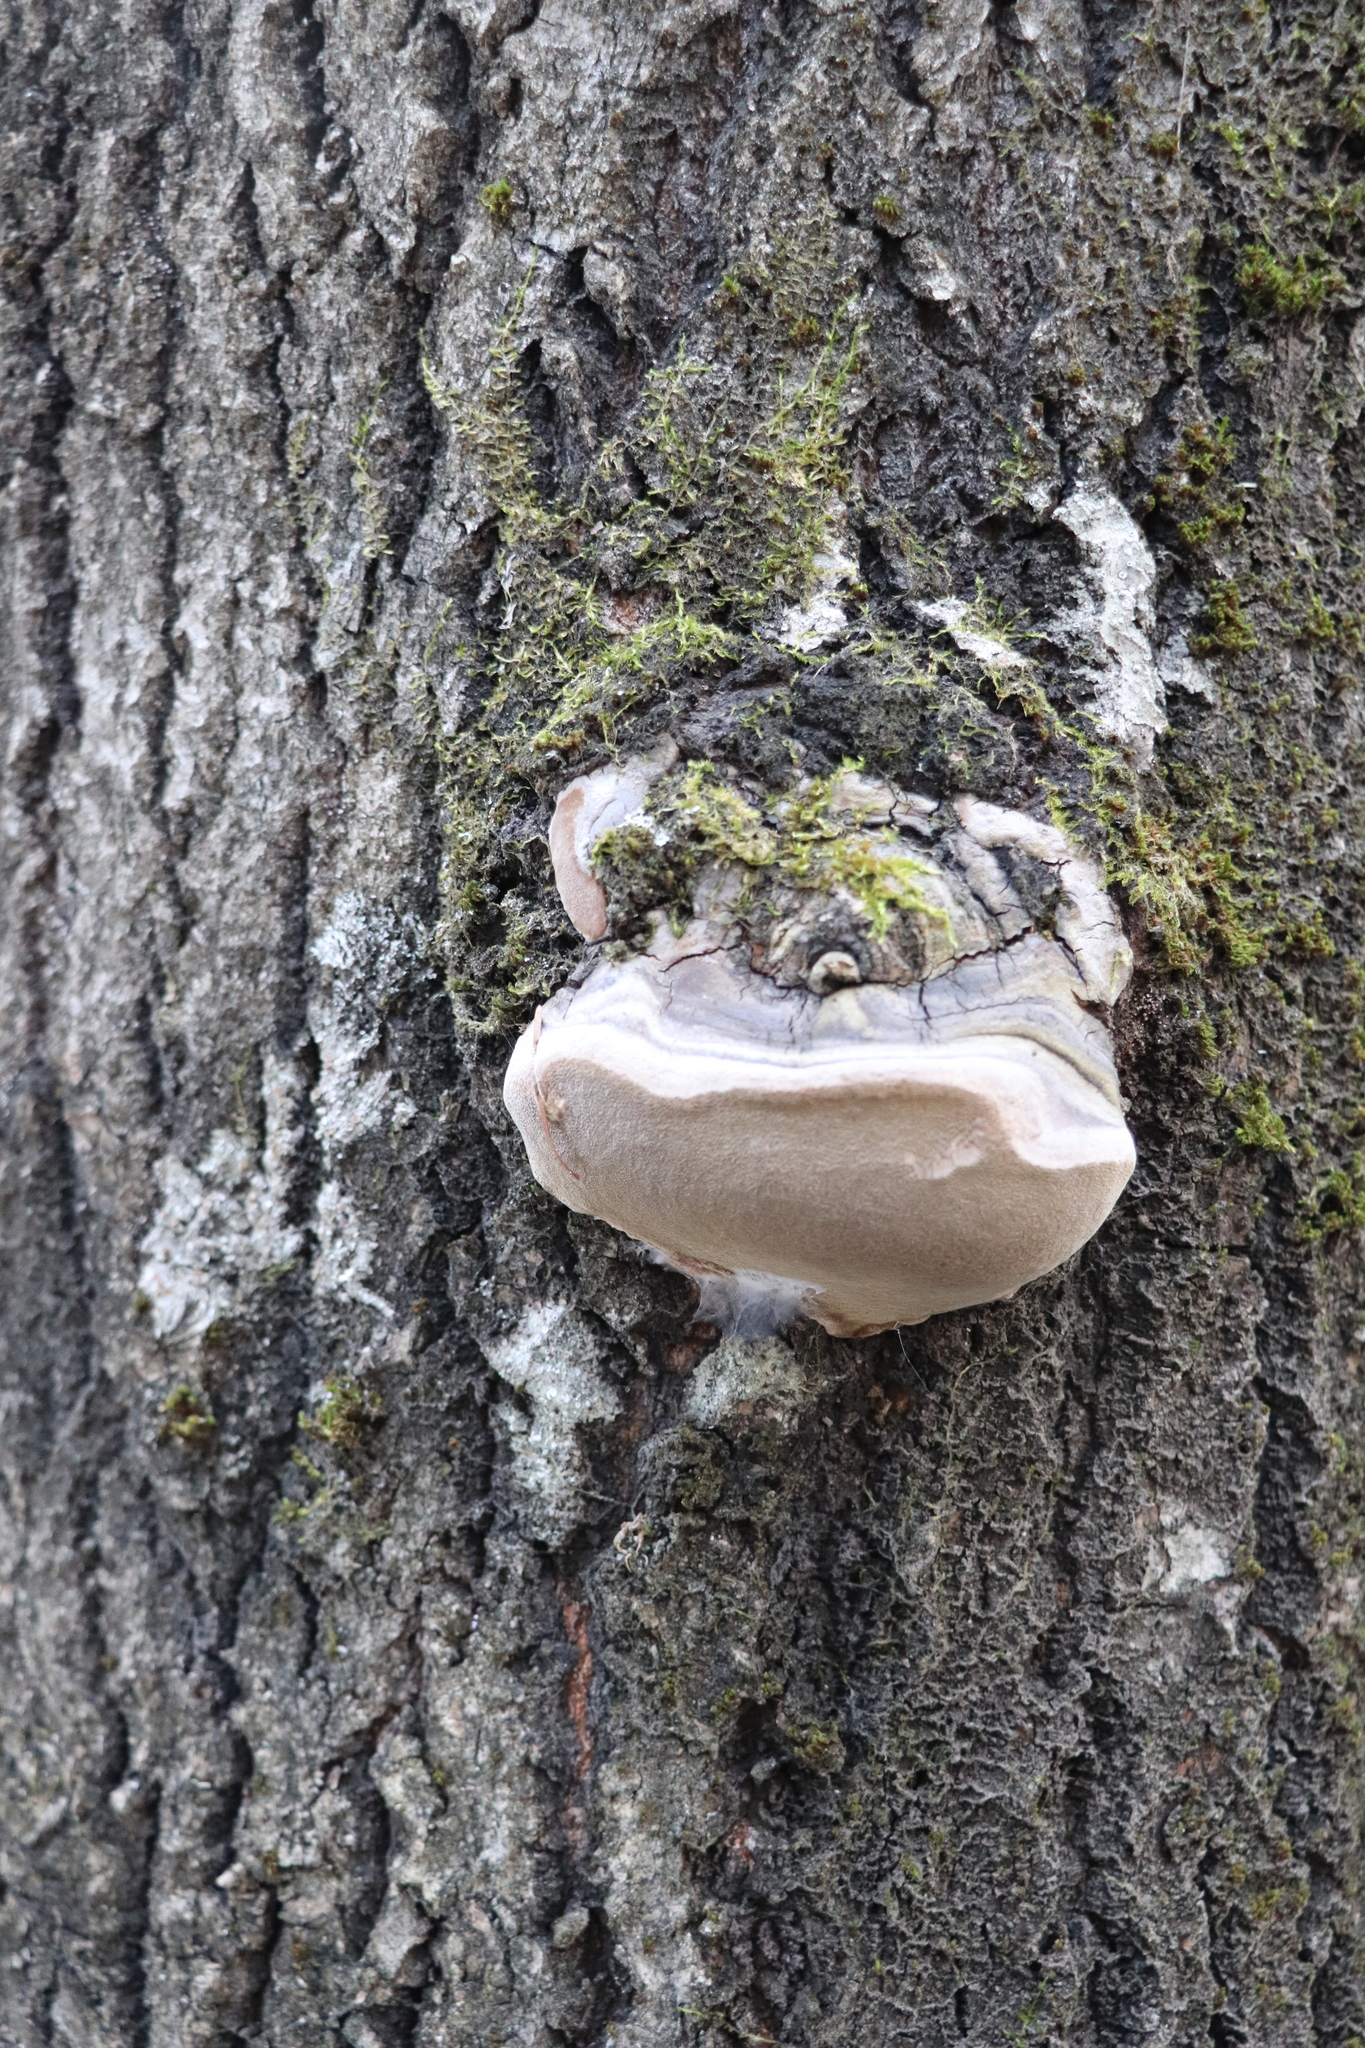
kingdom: Fungi
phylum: Basidiomycota
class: Agaricomycetes
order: Hymenochaetales
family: Hymenochaetaceae
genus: Phellinus
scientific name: Phellinus tremulae
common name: Aspen bracket
